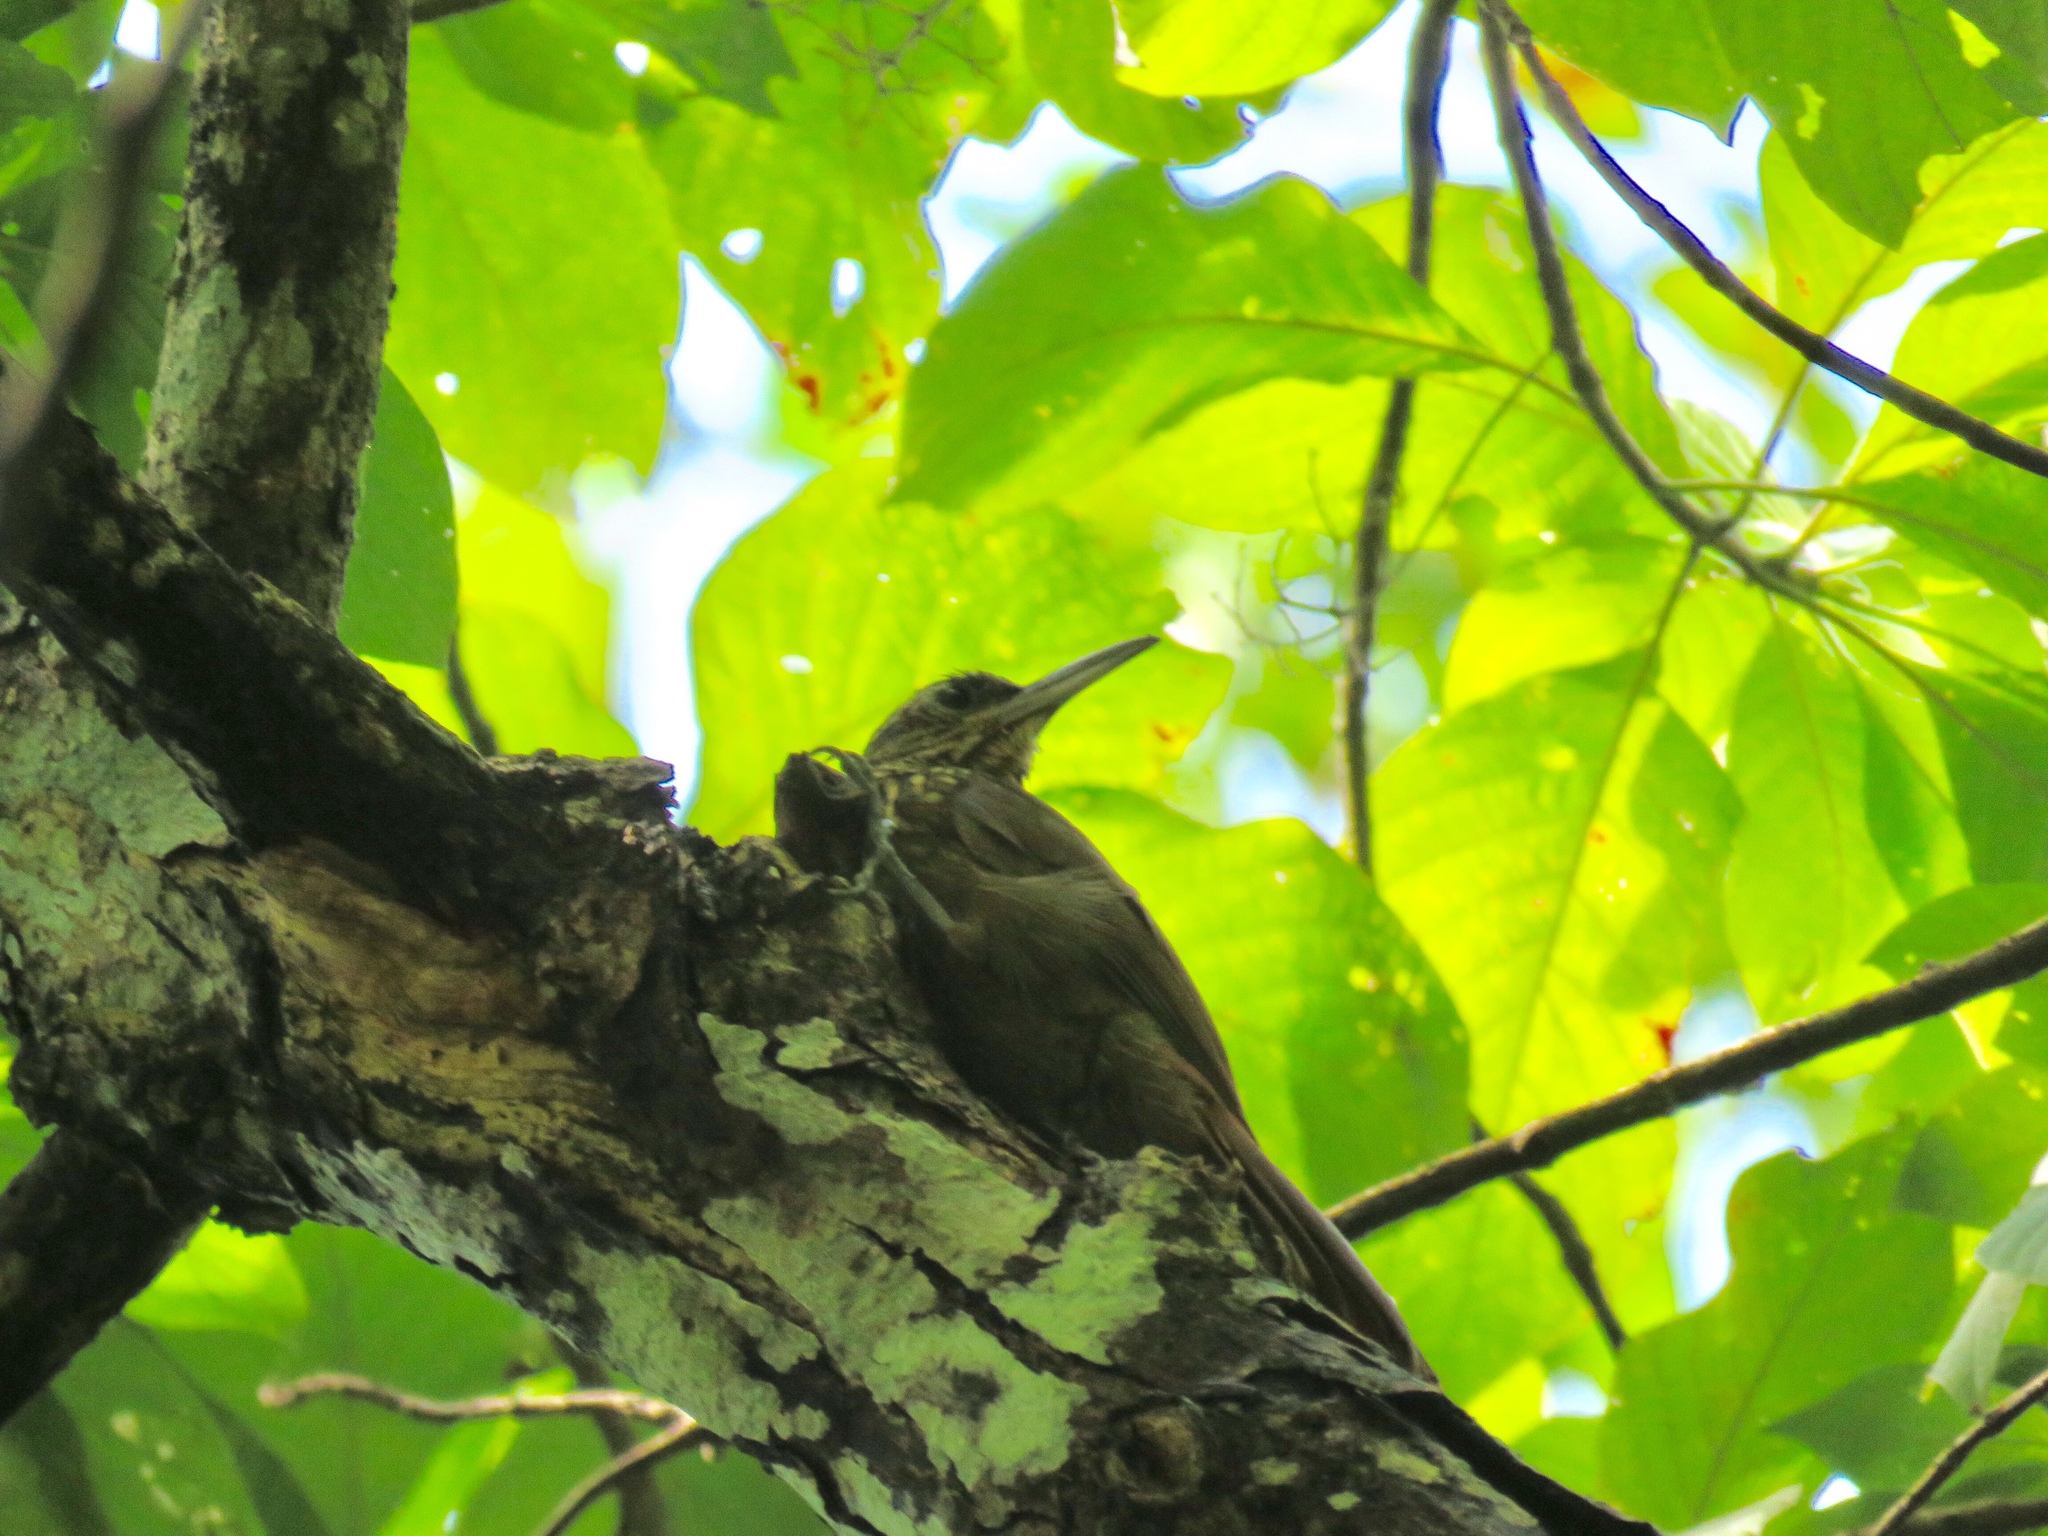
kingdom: Animalia
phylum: Chordata
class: Aves
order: Passeriformes
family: Furnariidae
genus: Xiphorhynchus
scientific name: Xiphorhynchus susurrans
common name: Cocoa woodcreeper
